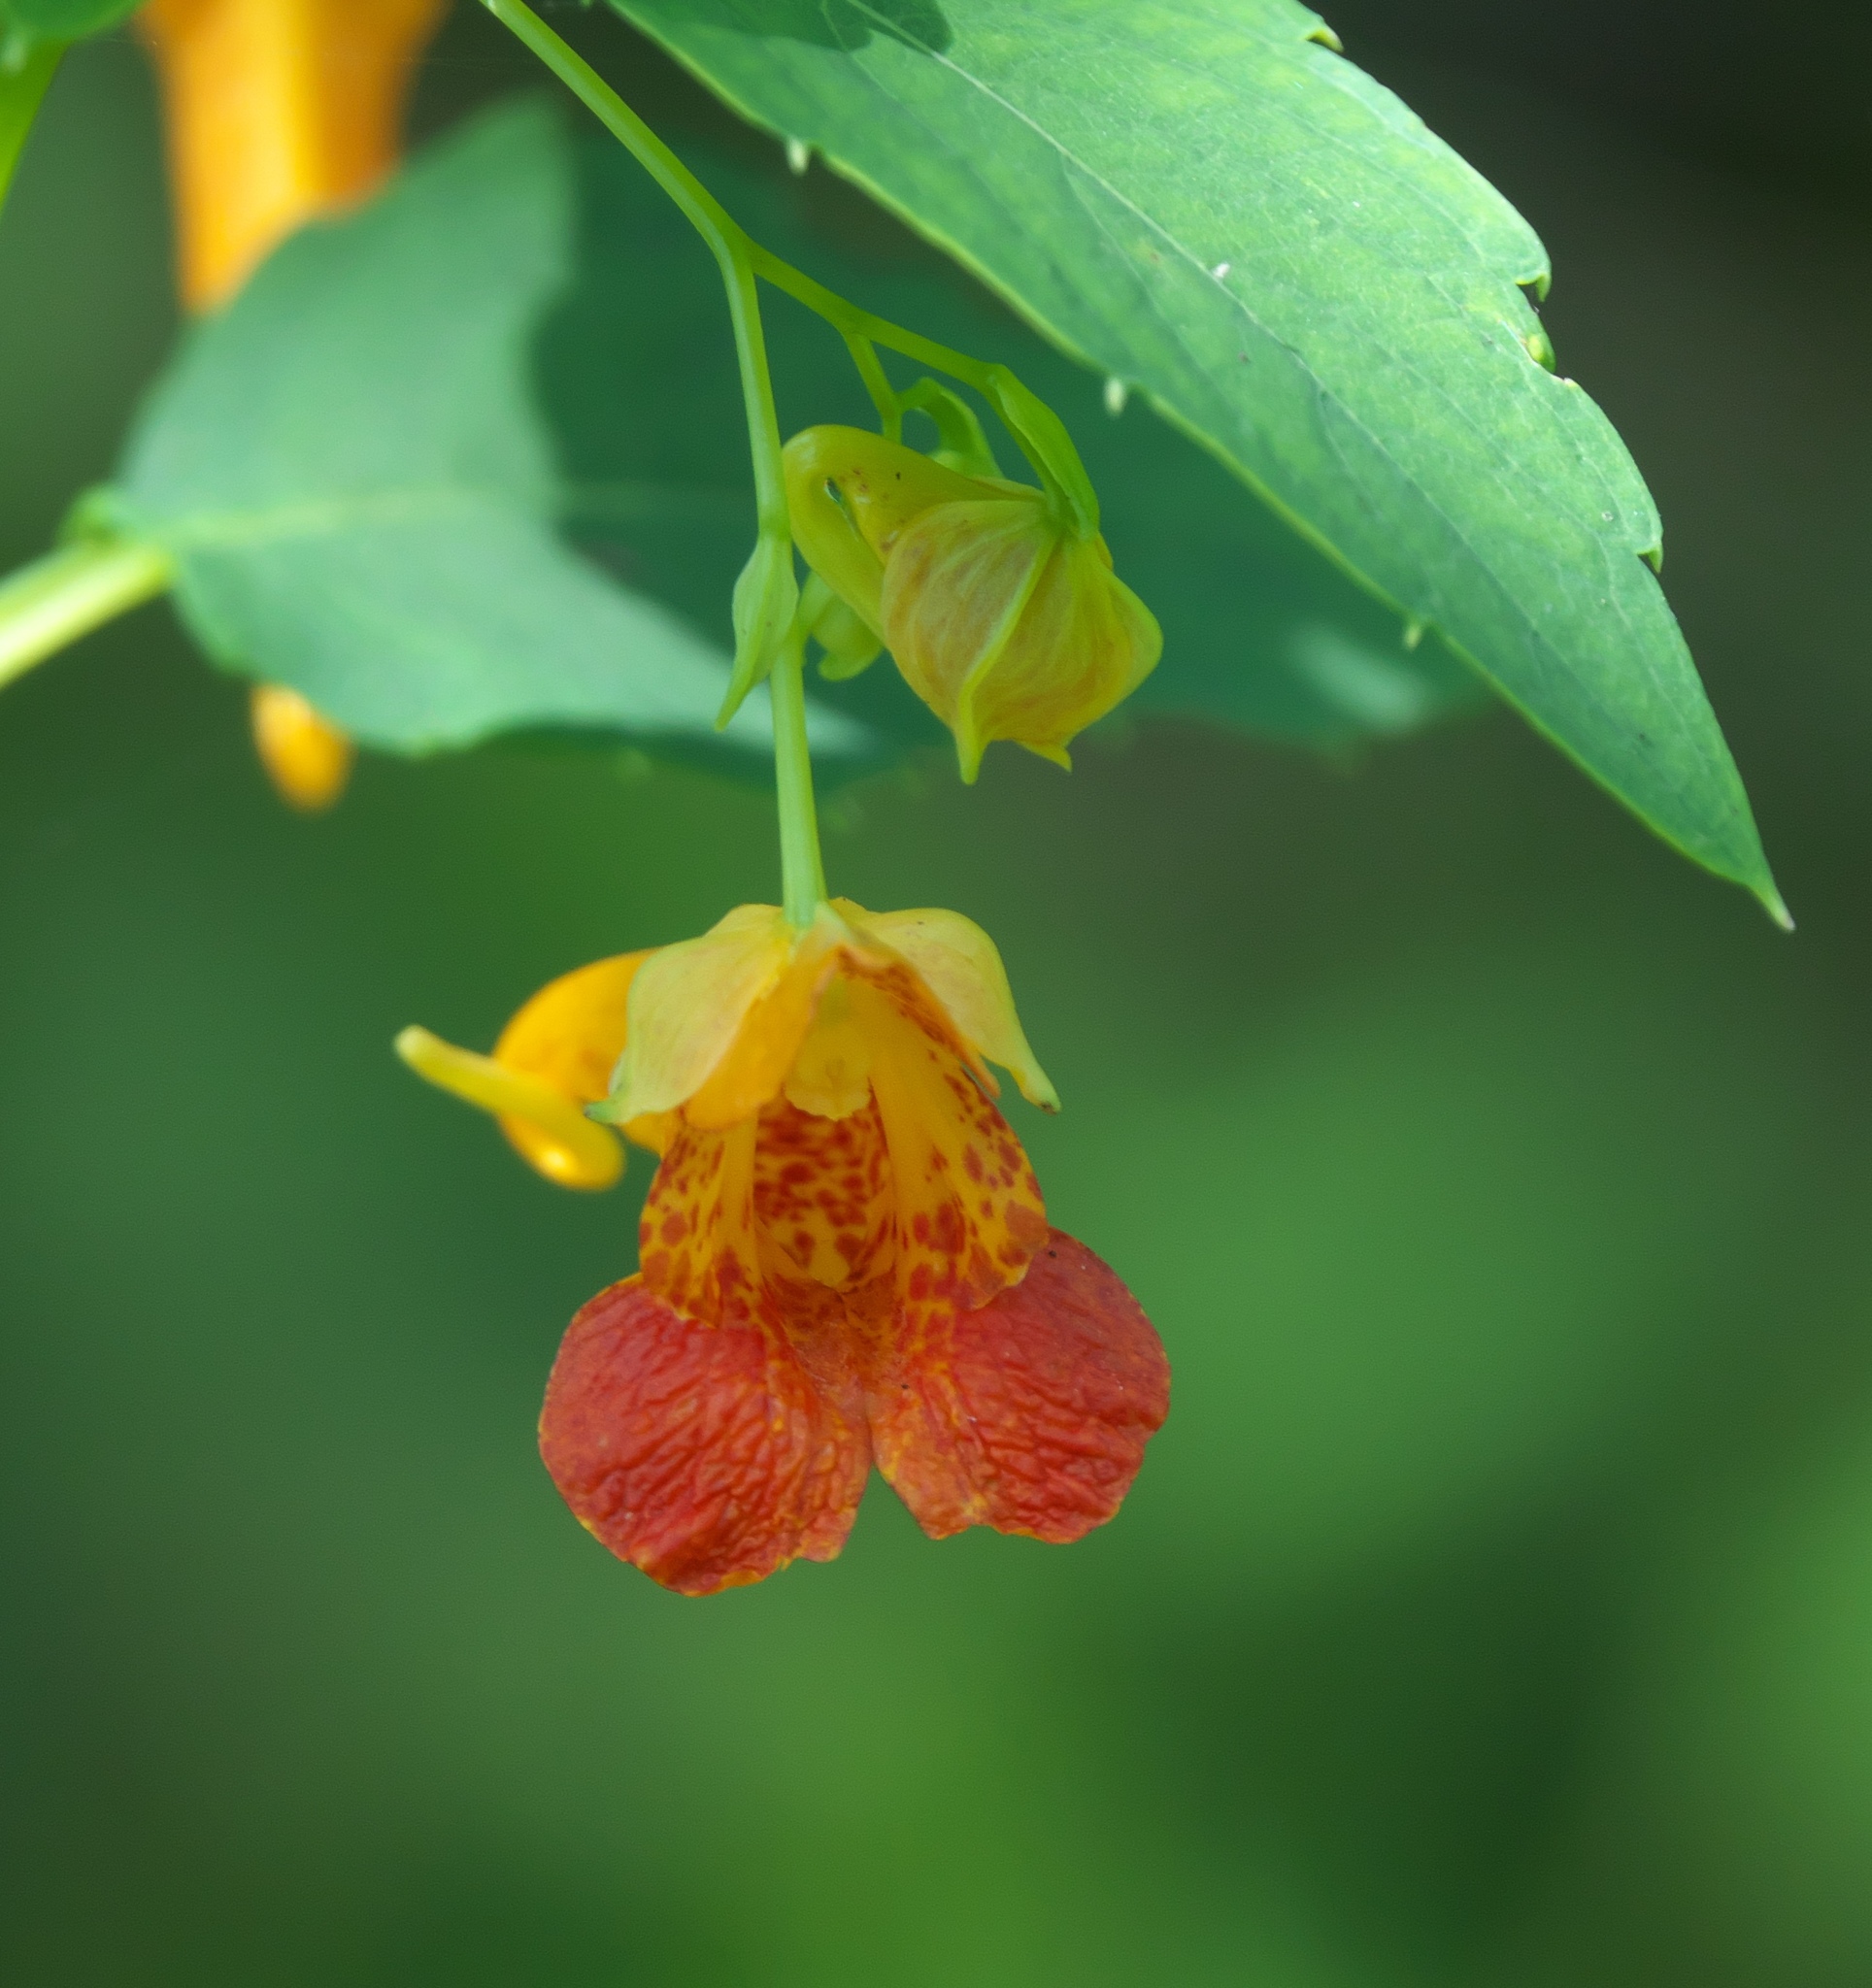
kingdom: Plantae
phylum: Tracheophyta
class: Magnoliopsida
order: Ericales
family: Balsaminaceae
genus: Impatiens
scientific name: Impatiens capensis
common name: Orange balsam
